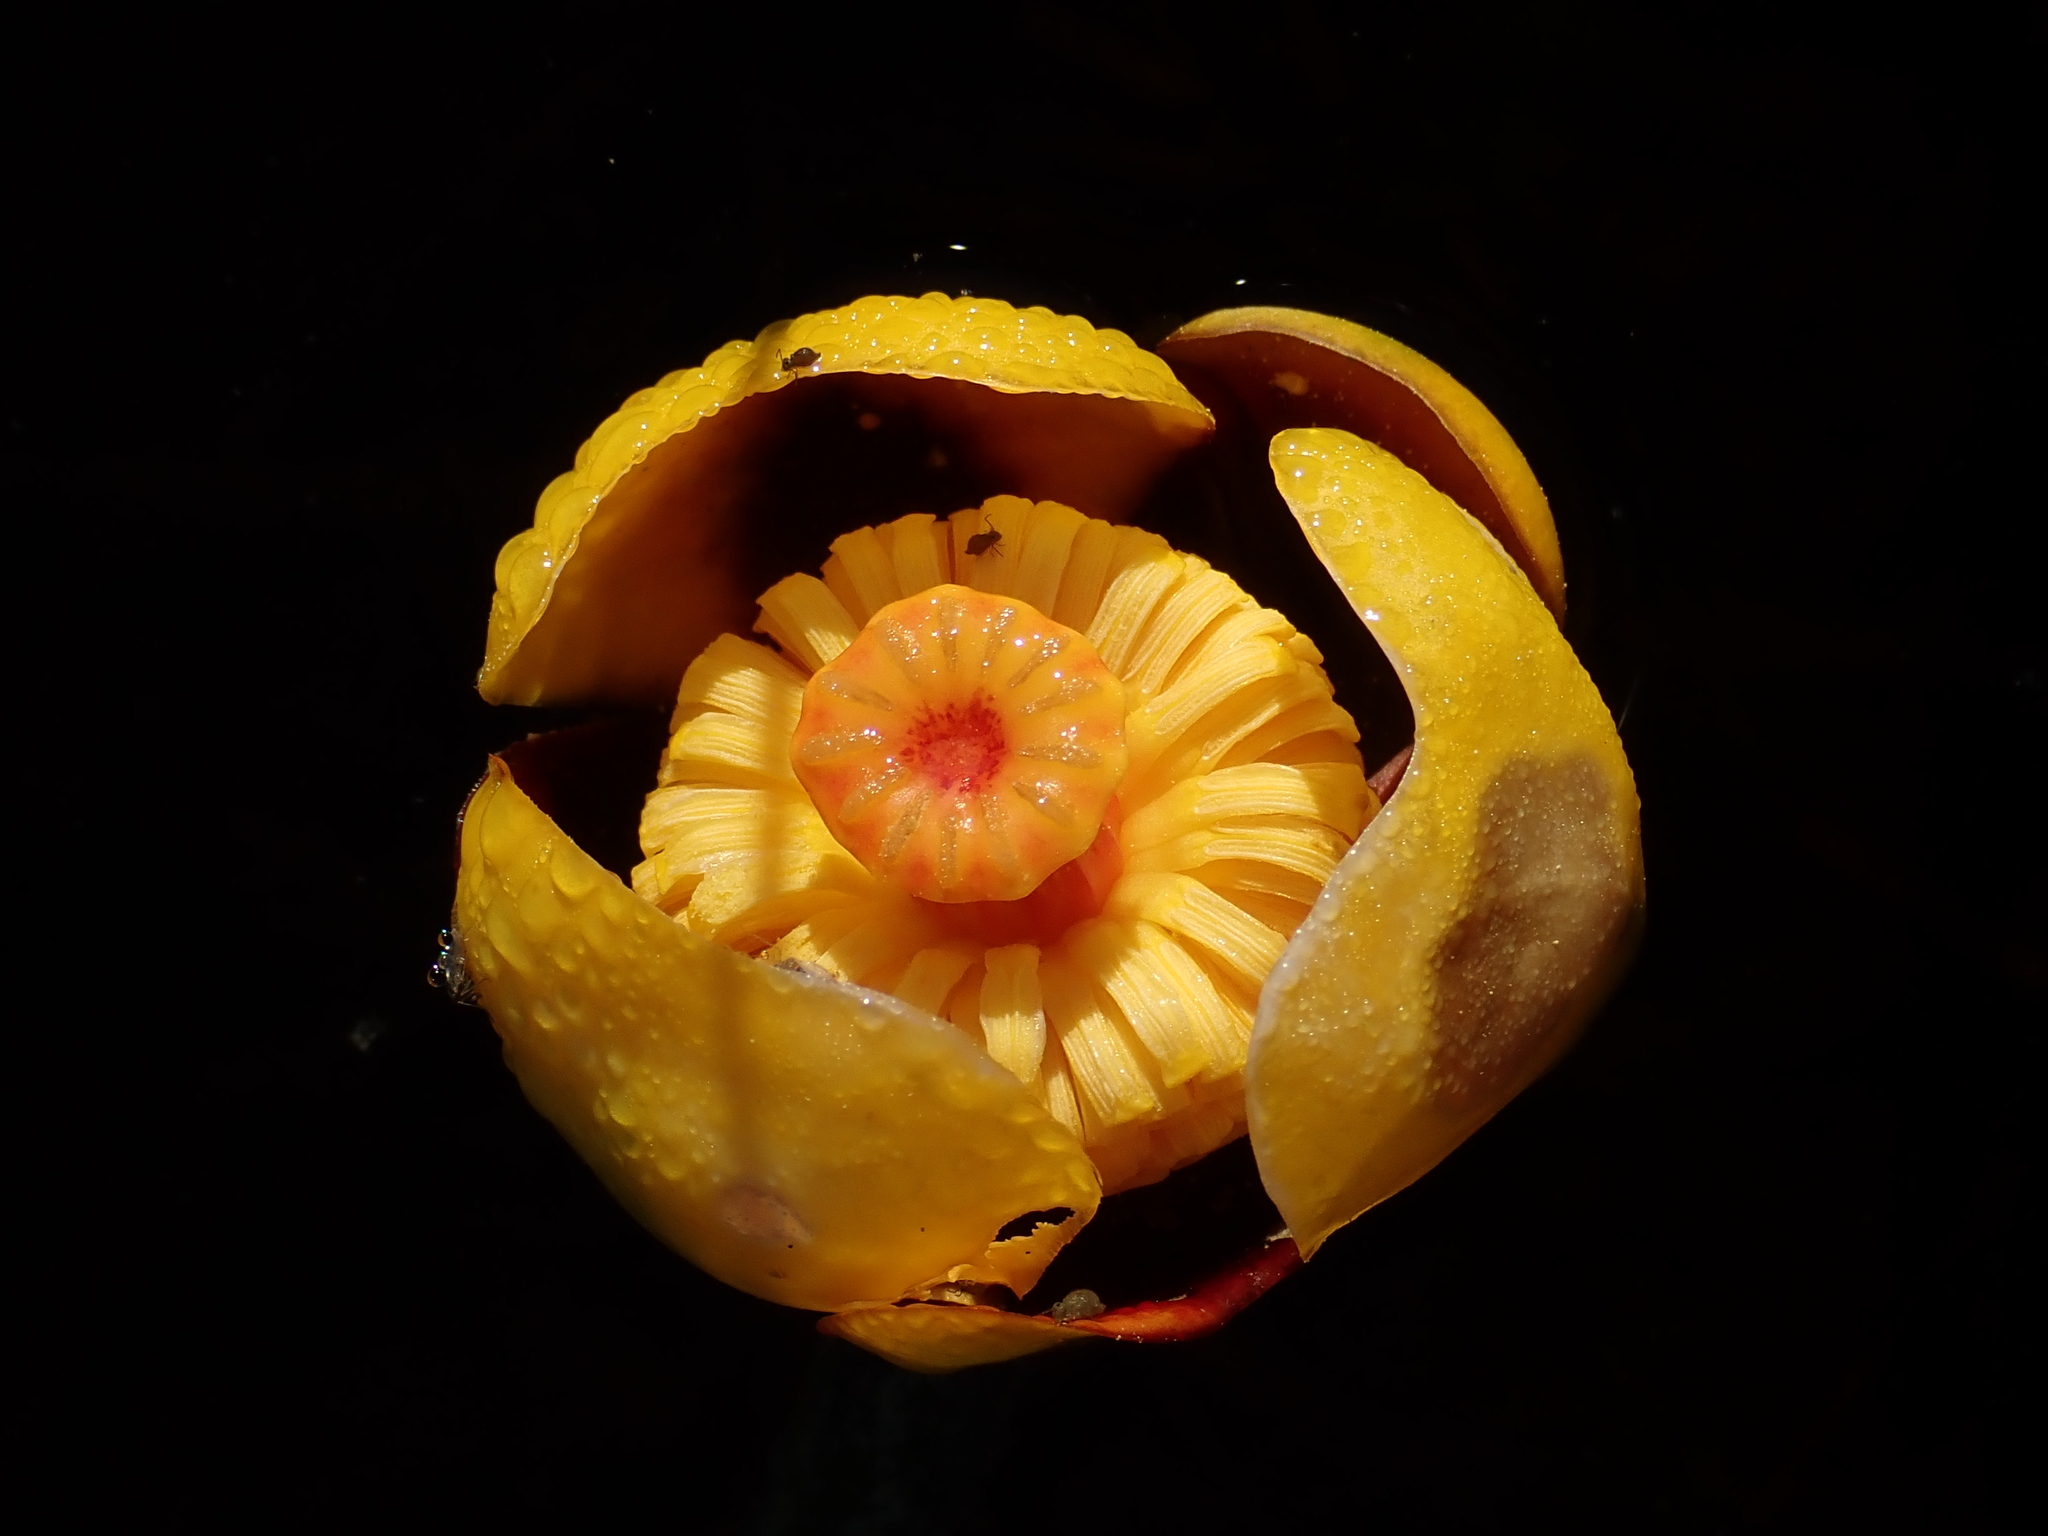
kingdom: Plantae
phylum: Tracheophyta
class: Magnoliopsida
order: Nymphaeales
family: Nymphaeaceae
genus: Nuphar
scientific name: Nuphar variegata
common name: Beaver-root
